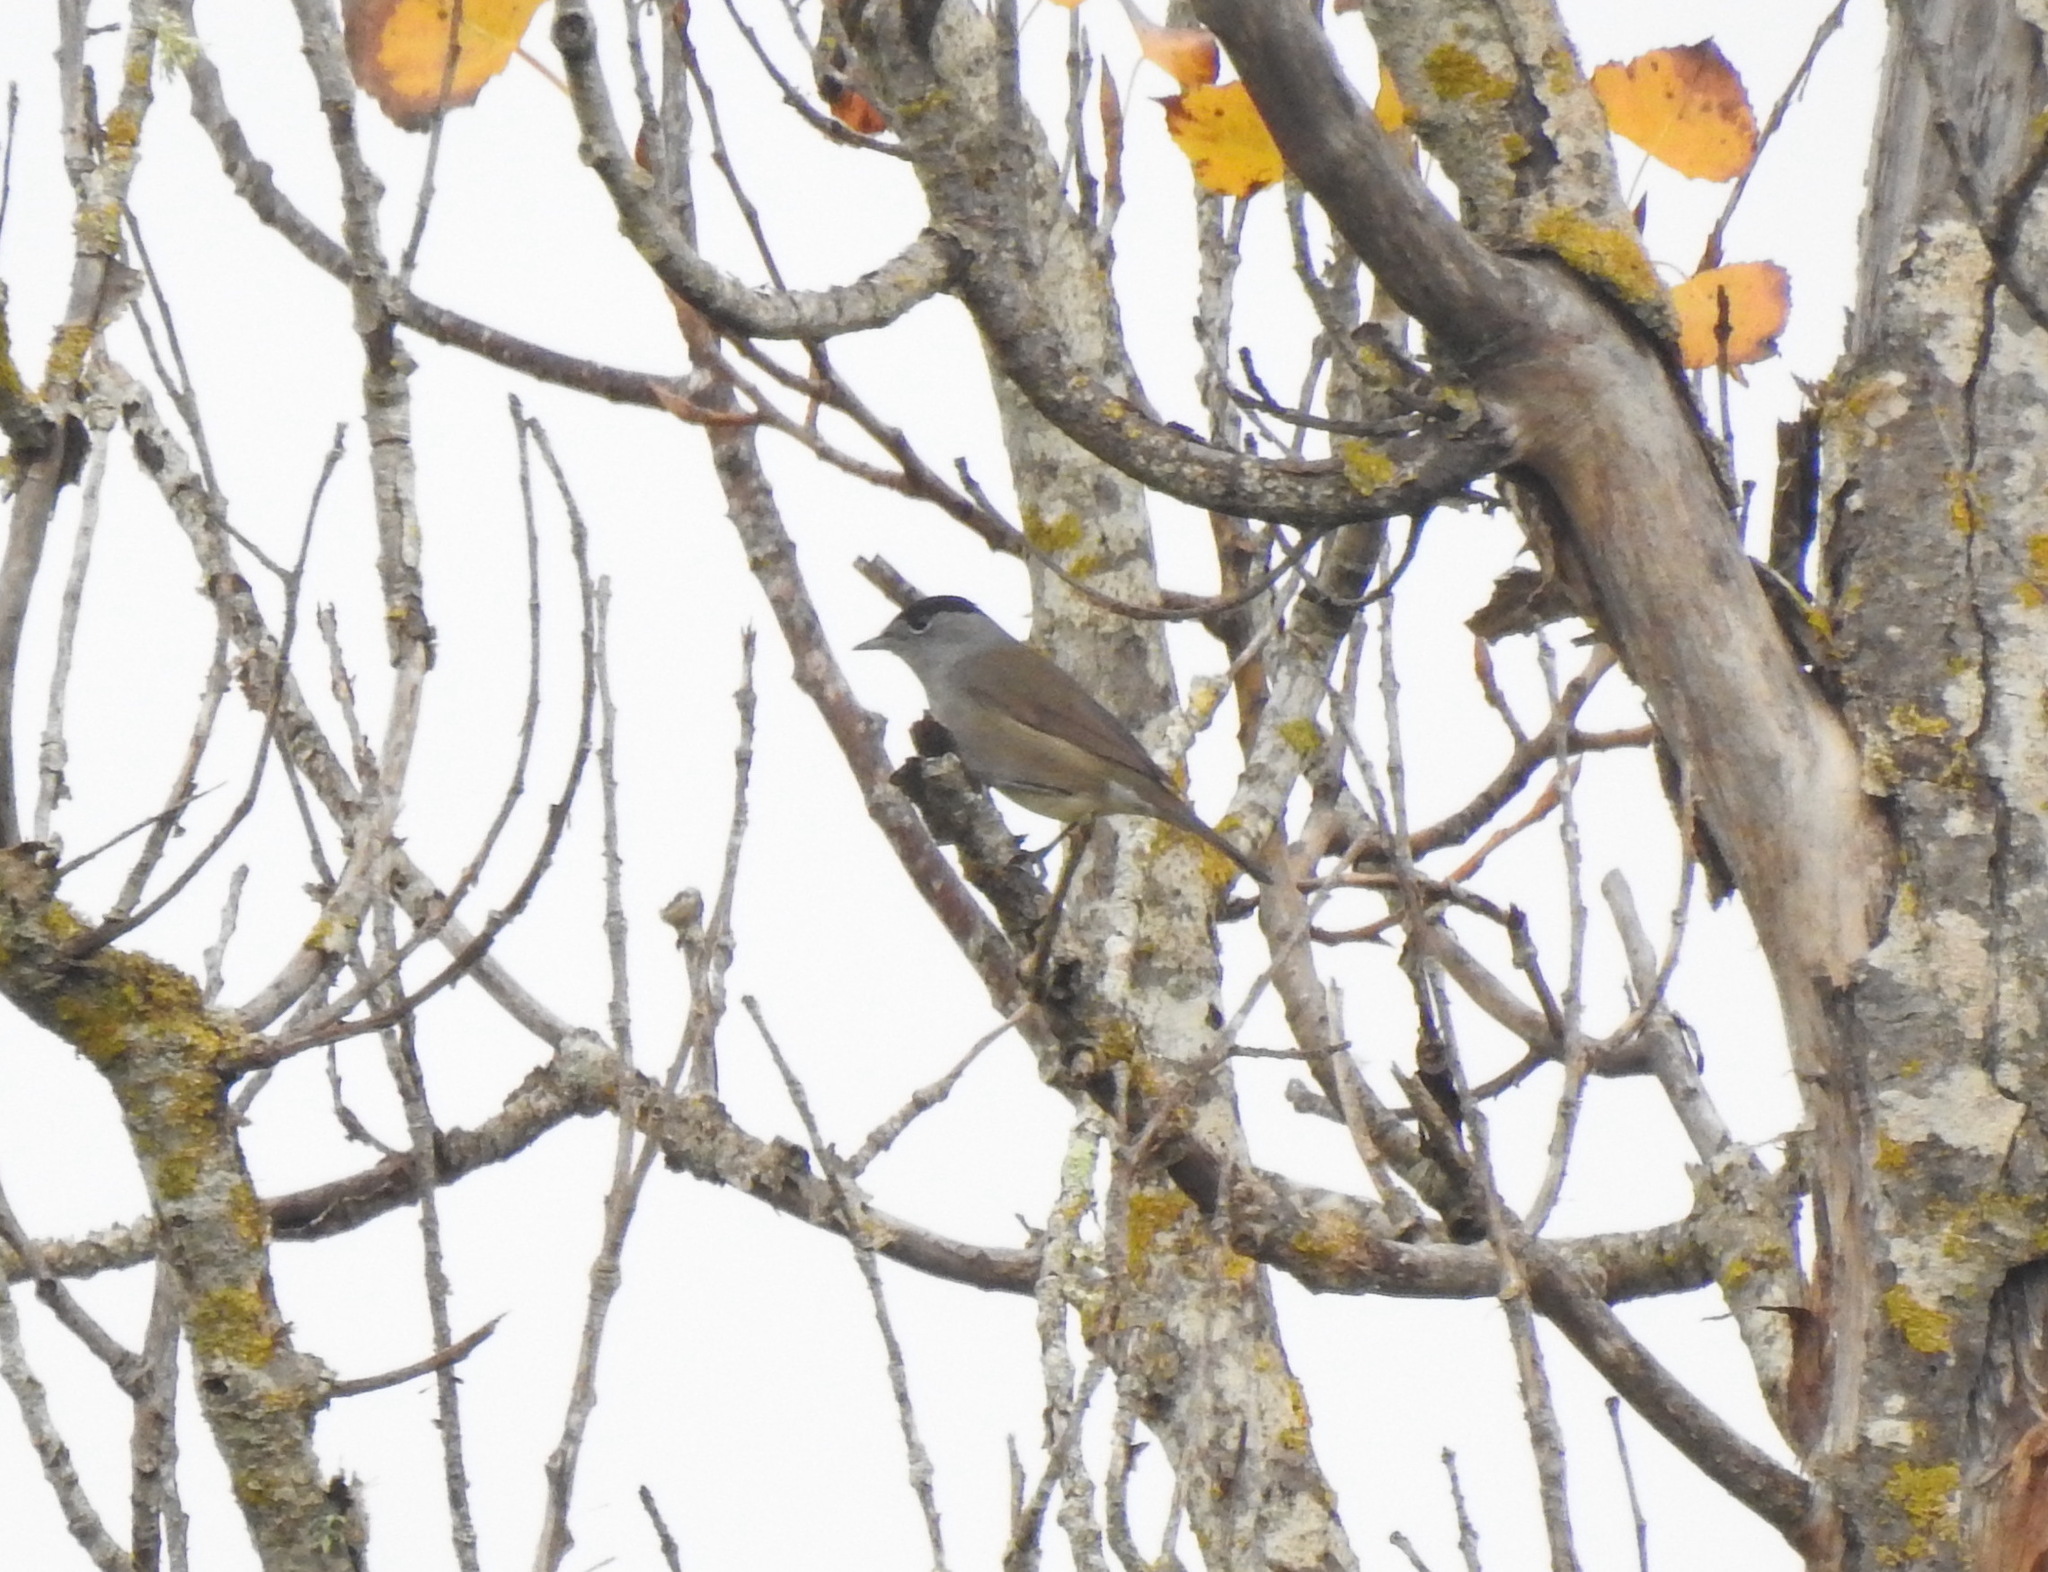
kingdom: Animalia
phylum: Chordata
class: Aves
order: Passeriformes
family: Sylviidae
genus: Sylvia
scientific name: Sylvia atricapilla
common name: Eurasian blackcap
